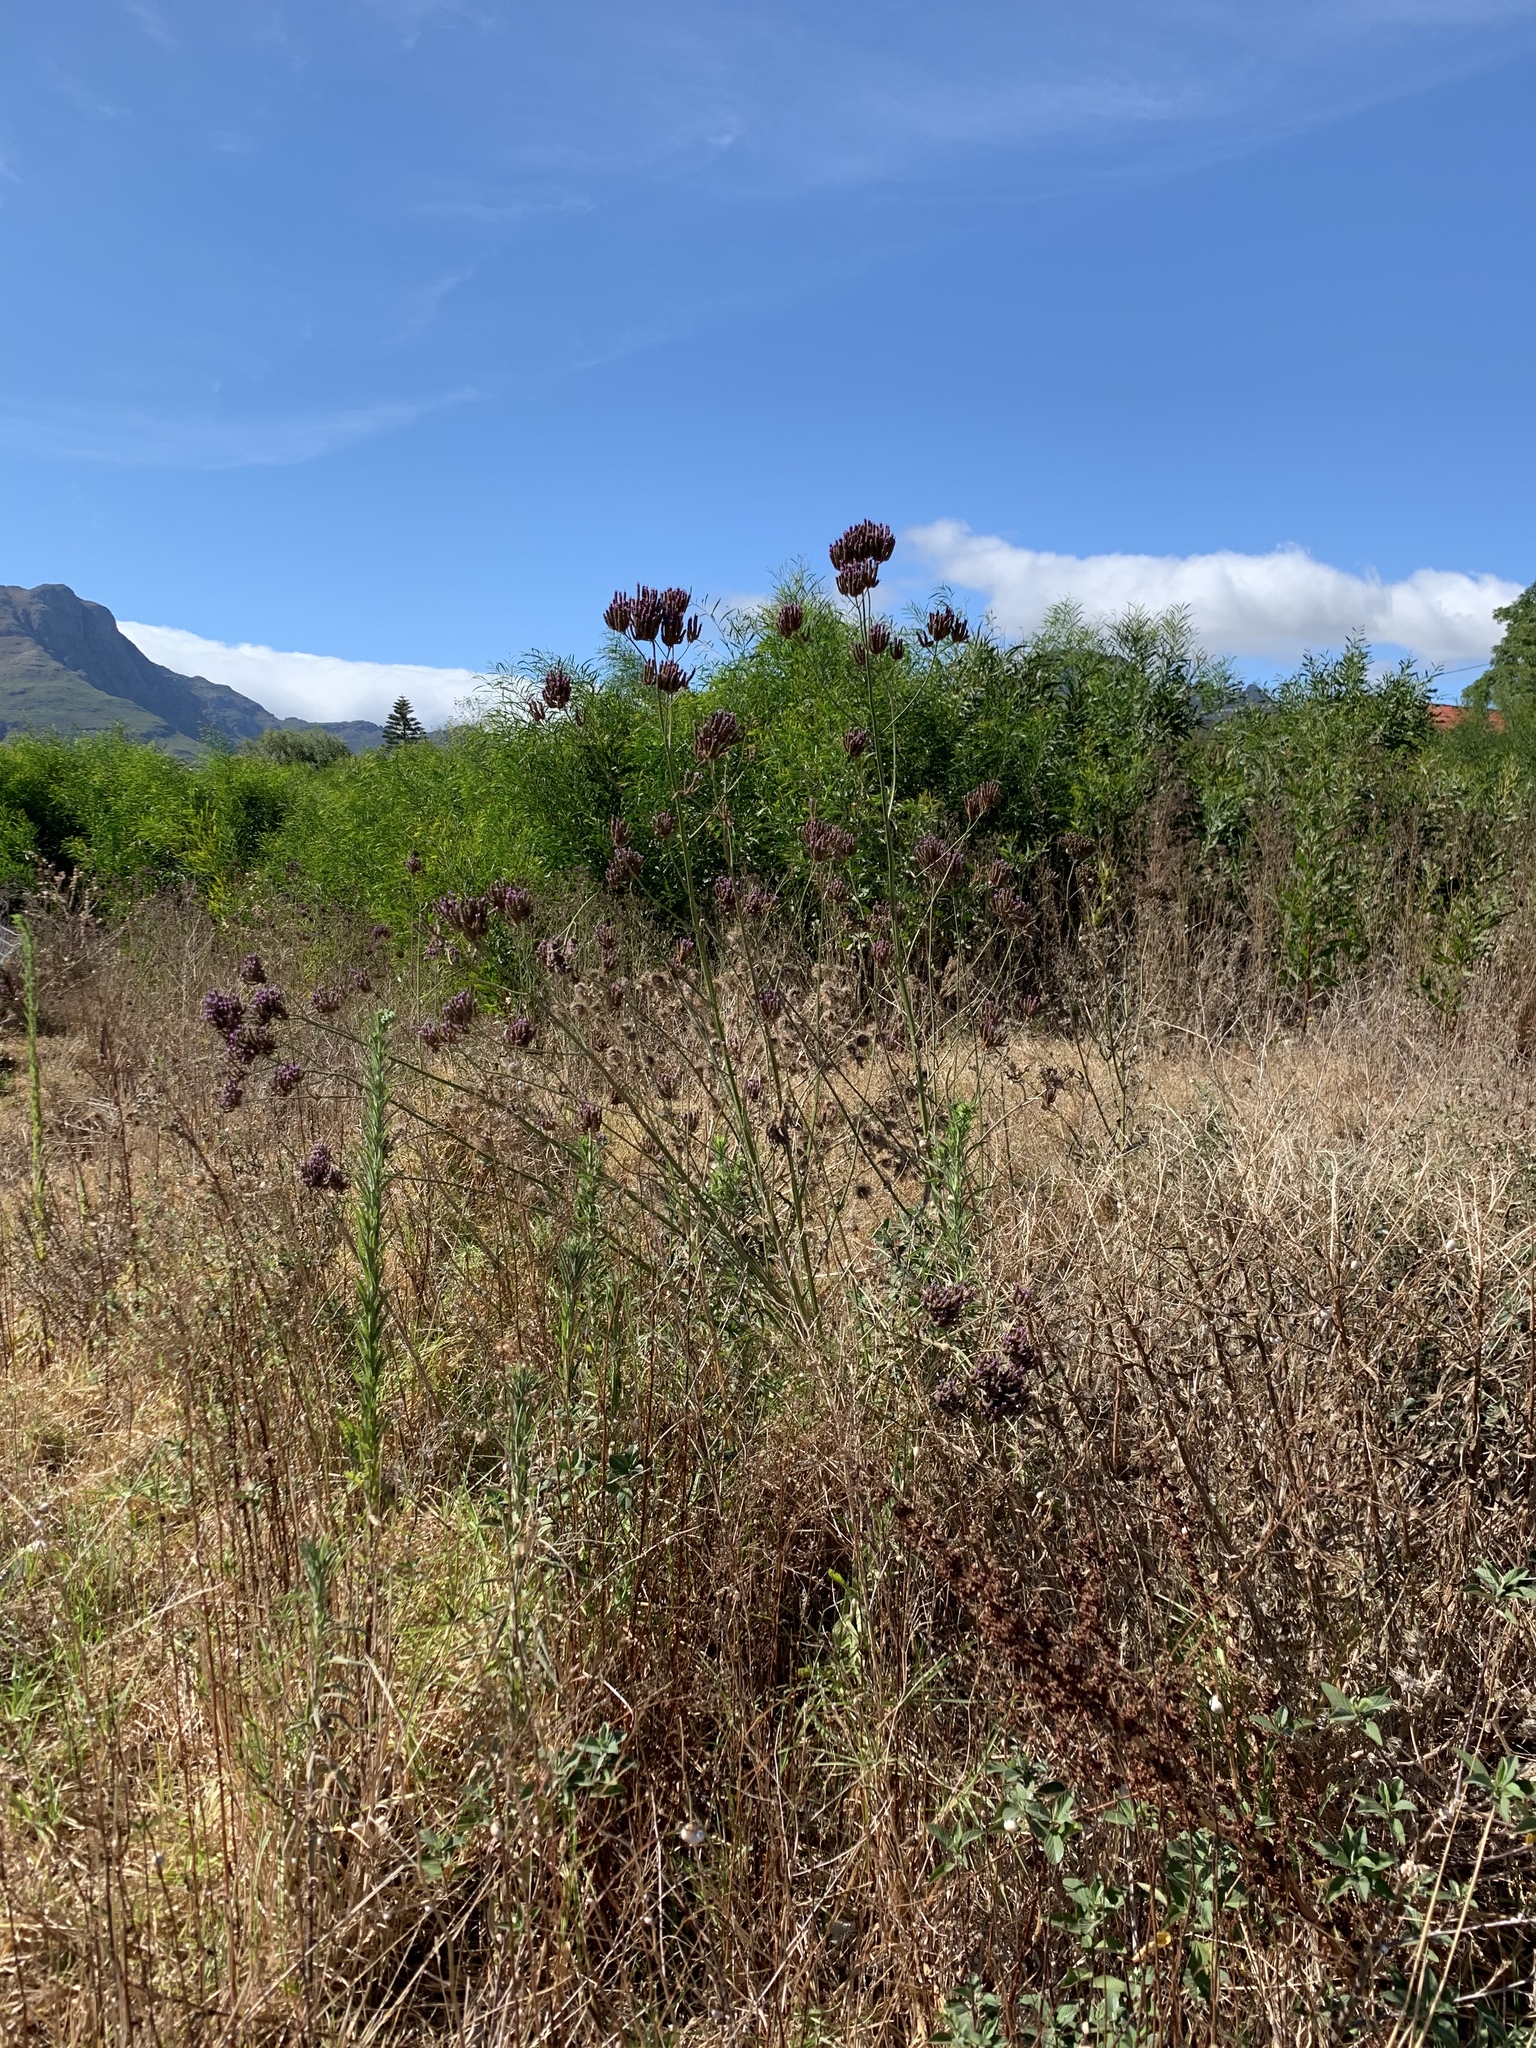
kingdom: Plantae
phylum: Tracheophyta
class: Magnoliopsida
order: Lamiales
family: Verbenaceae
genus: Verbena
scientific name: Verbena bonariensis
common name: Purpletop vervain
